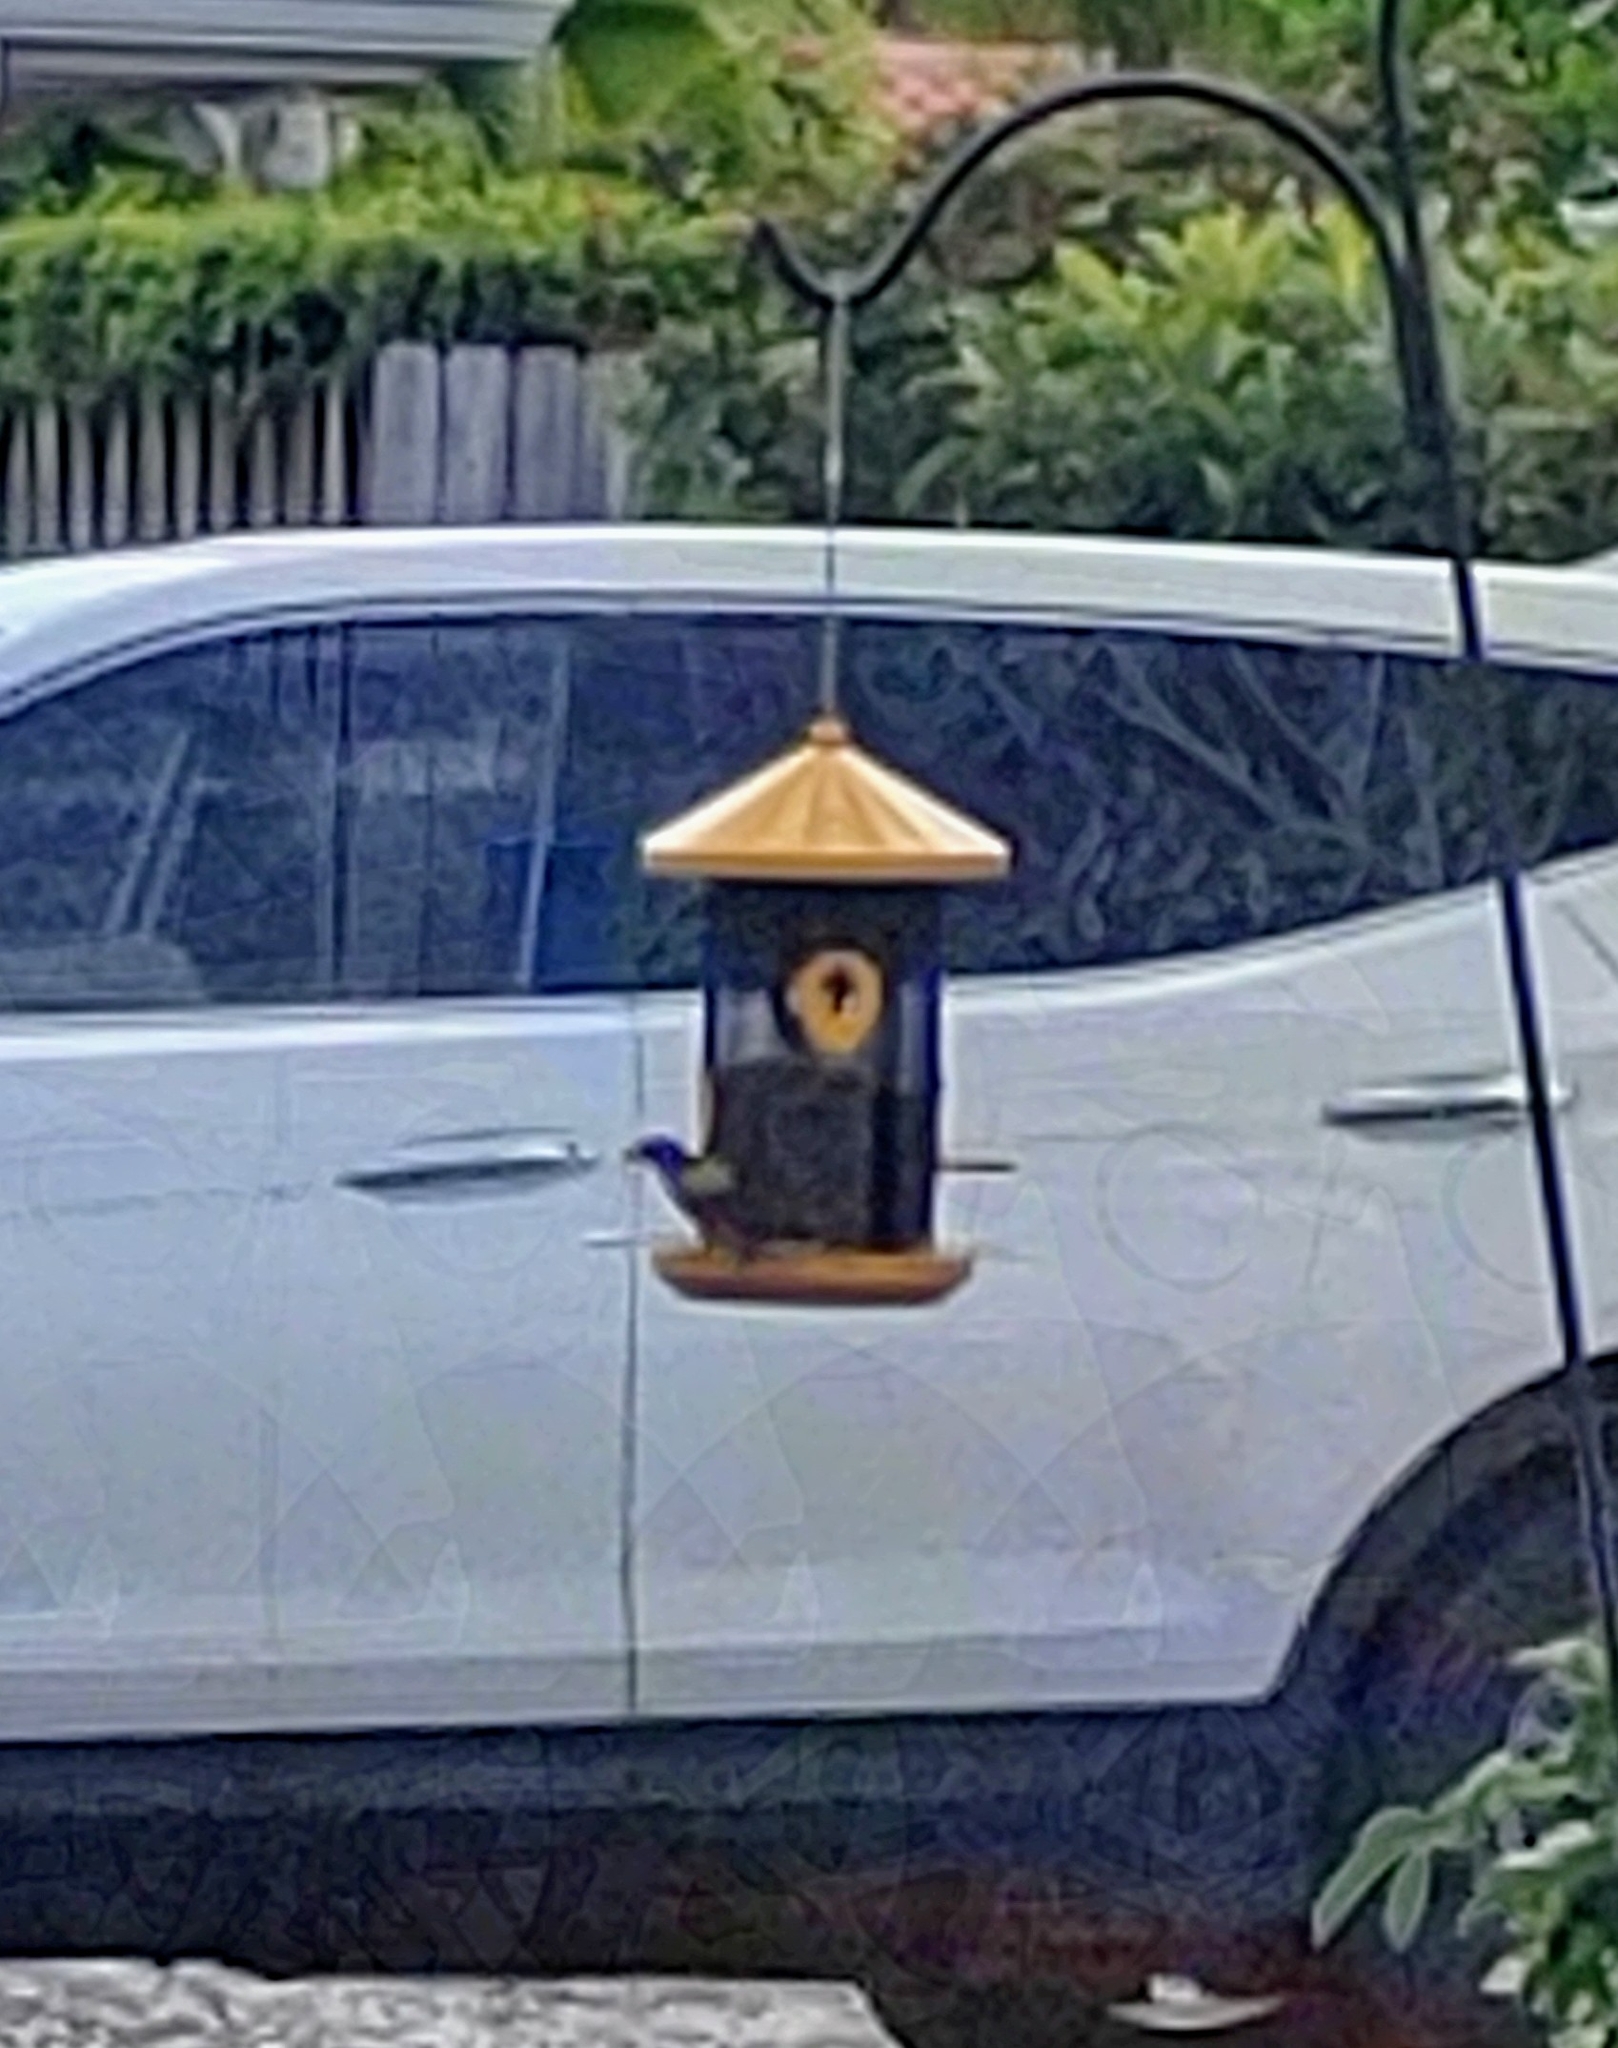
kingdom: Animalia
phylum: Chordata
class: Aves
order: Passeriformes
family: Cardinalidae
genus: Passerina
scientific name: Passerina ciris
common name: Painted bunting
